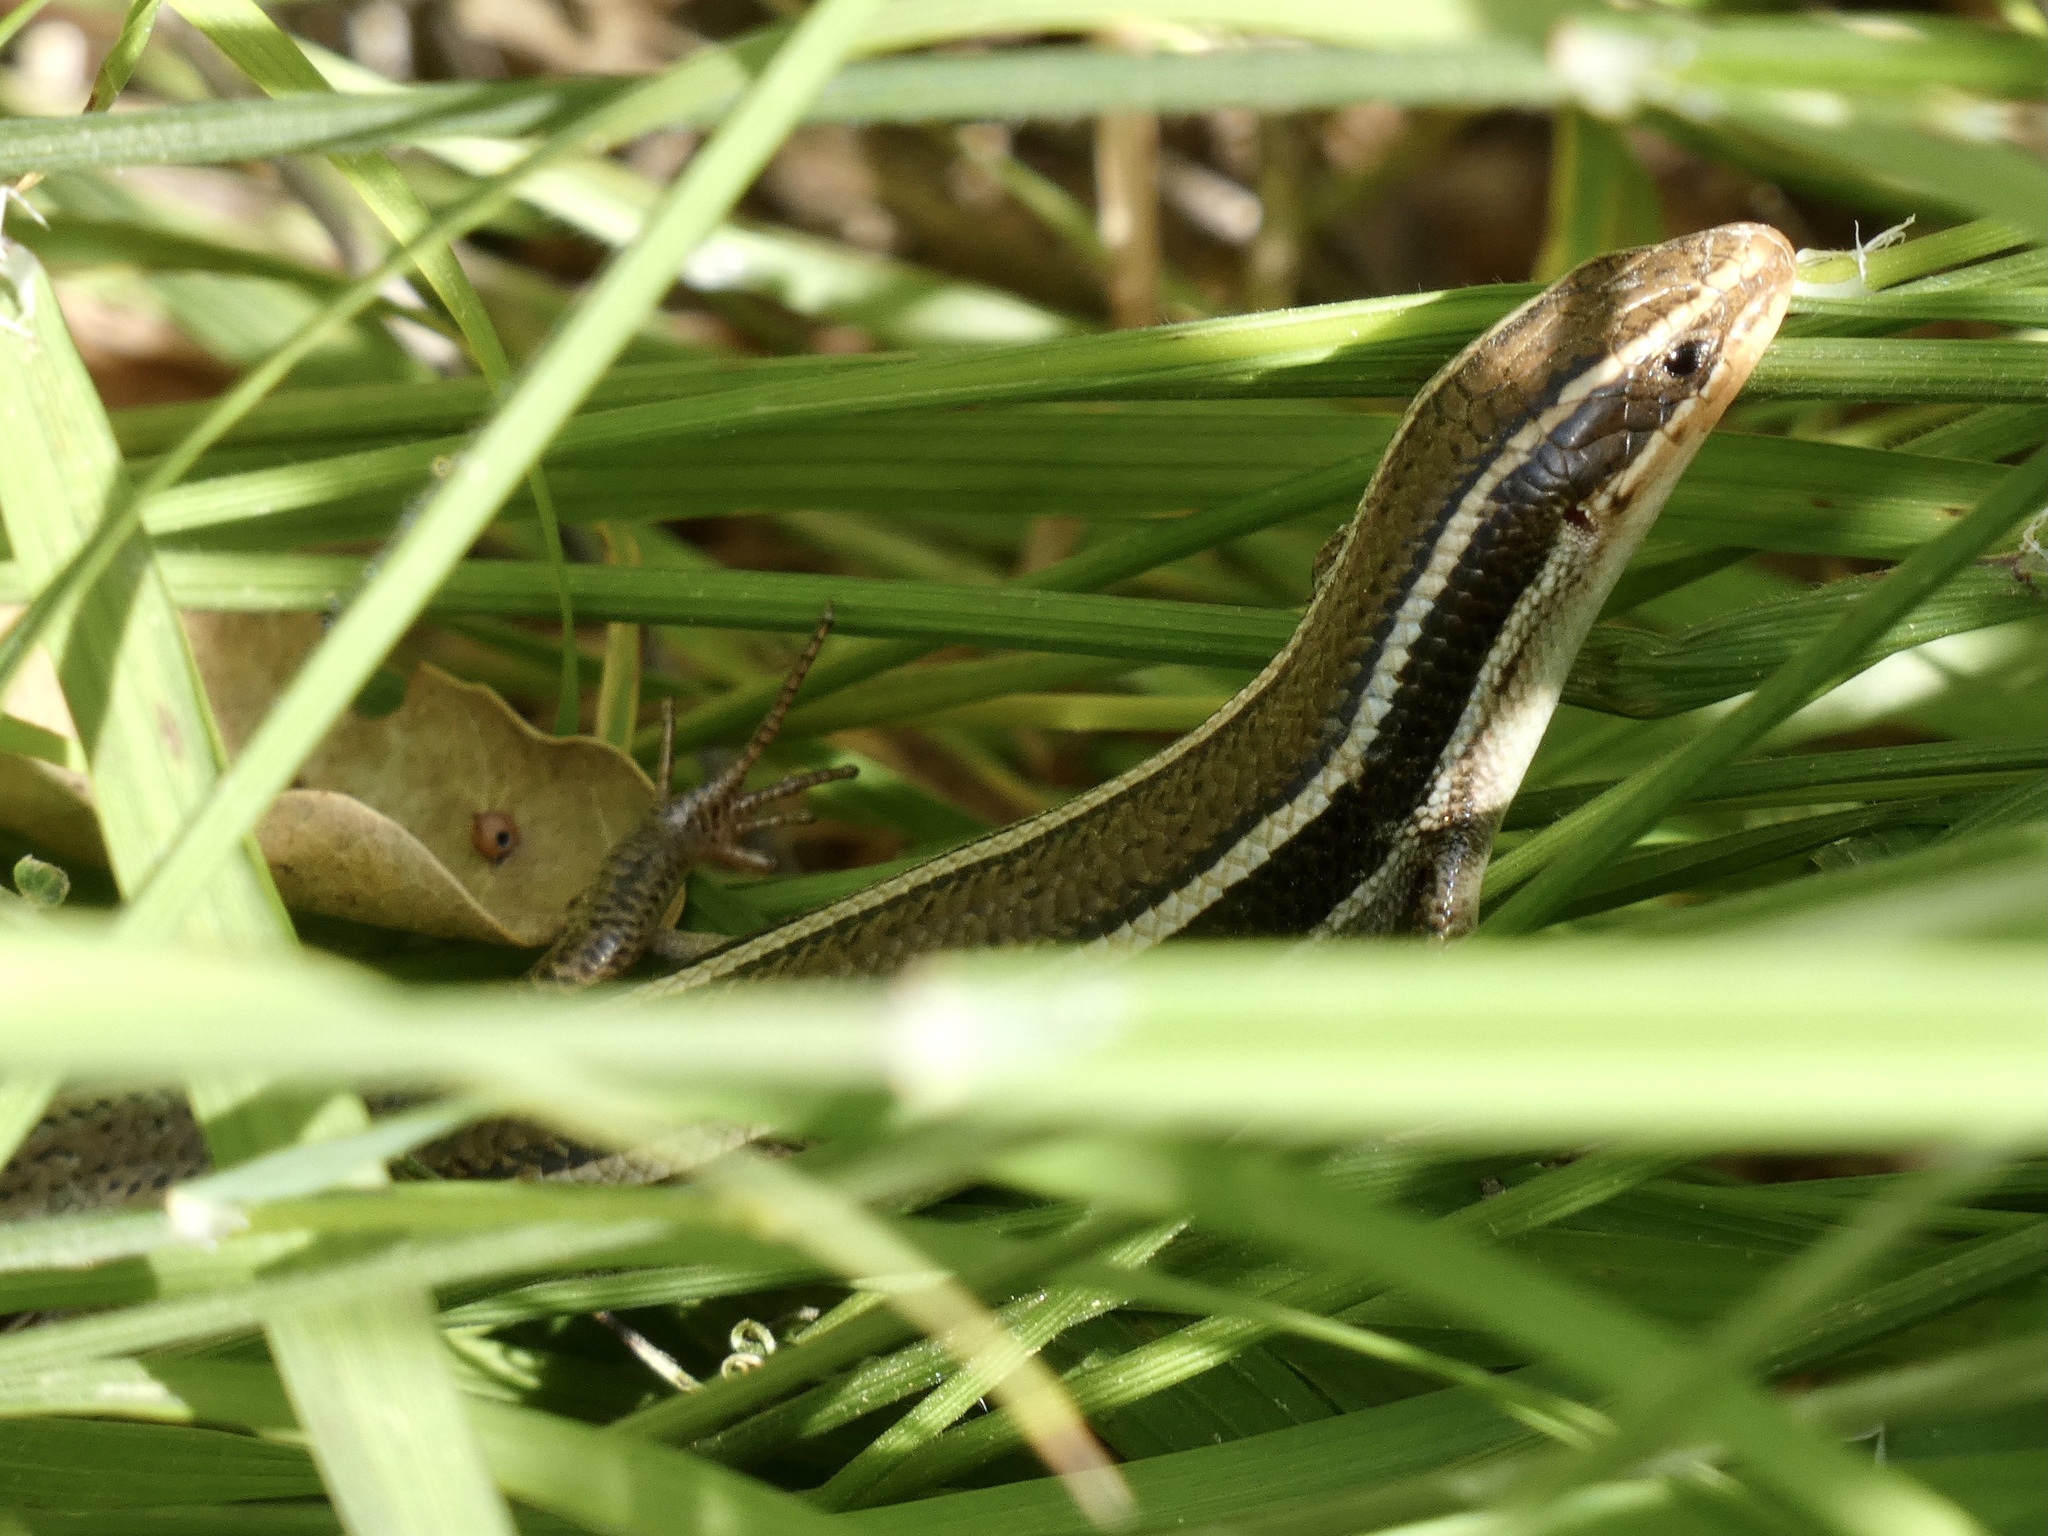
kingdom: Animalia
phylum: Chordata
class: Squamata
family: Scincidae
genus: Plestiodon
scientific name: Plestiodon skiltonianus
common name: Coronado island skink [interparietalis]
